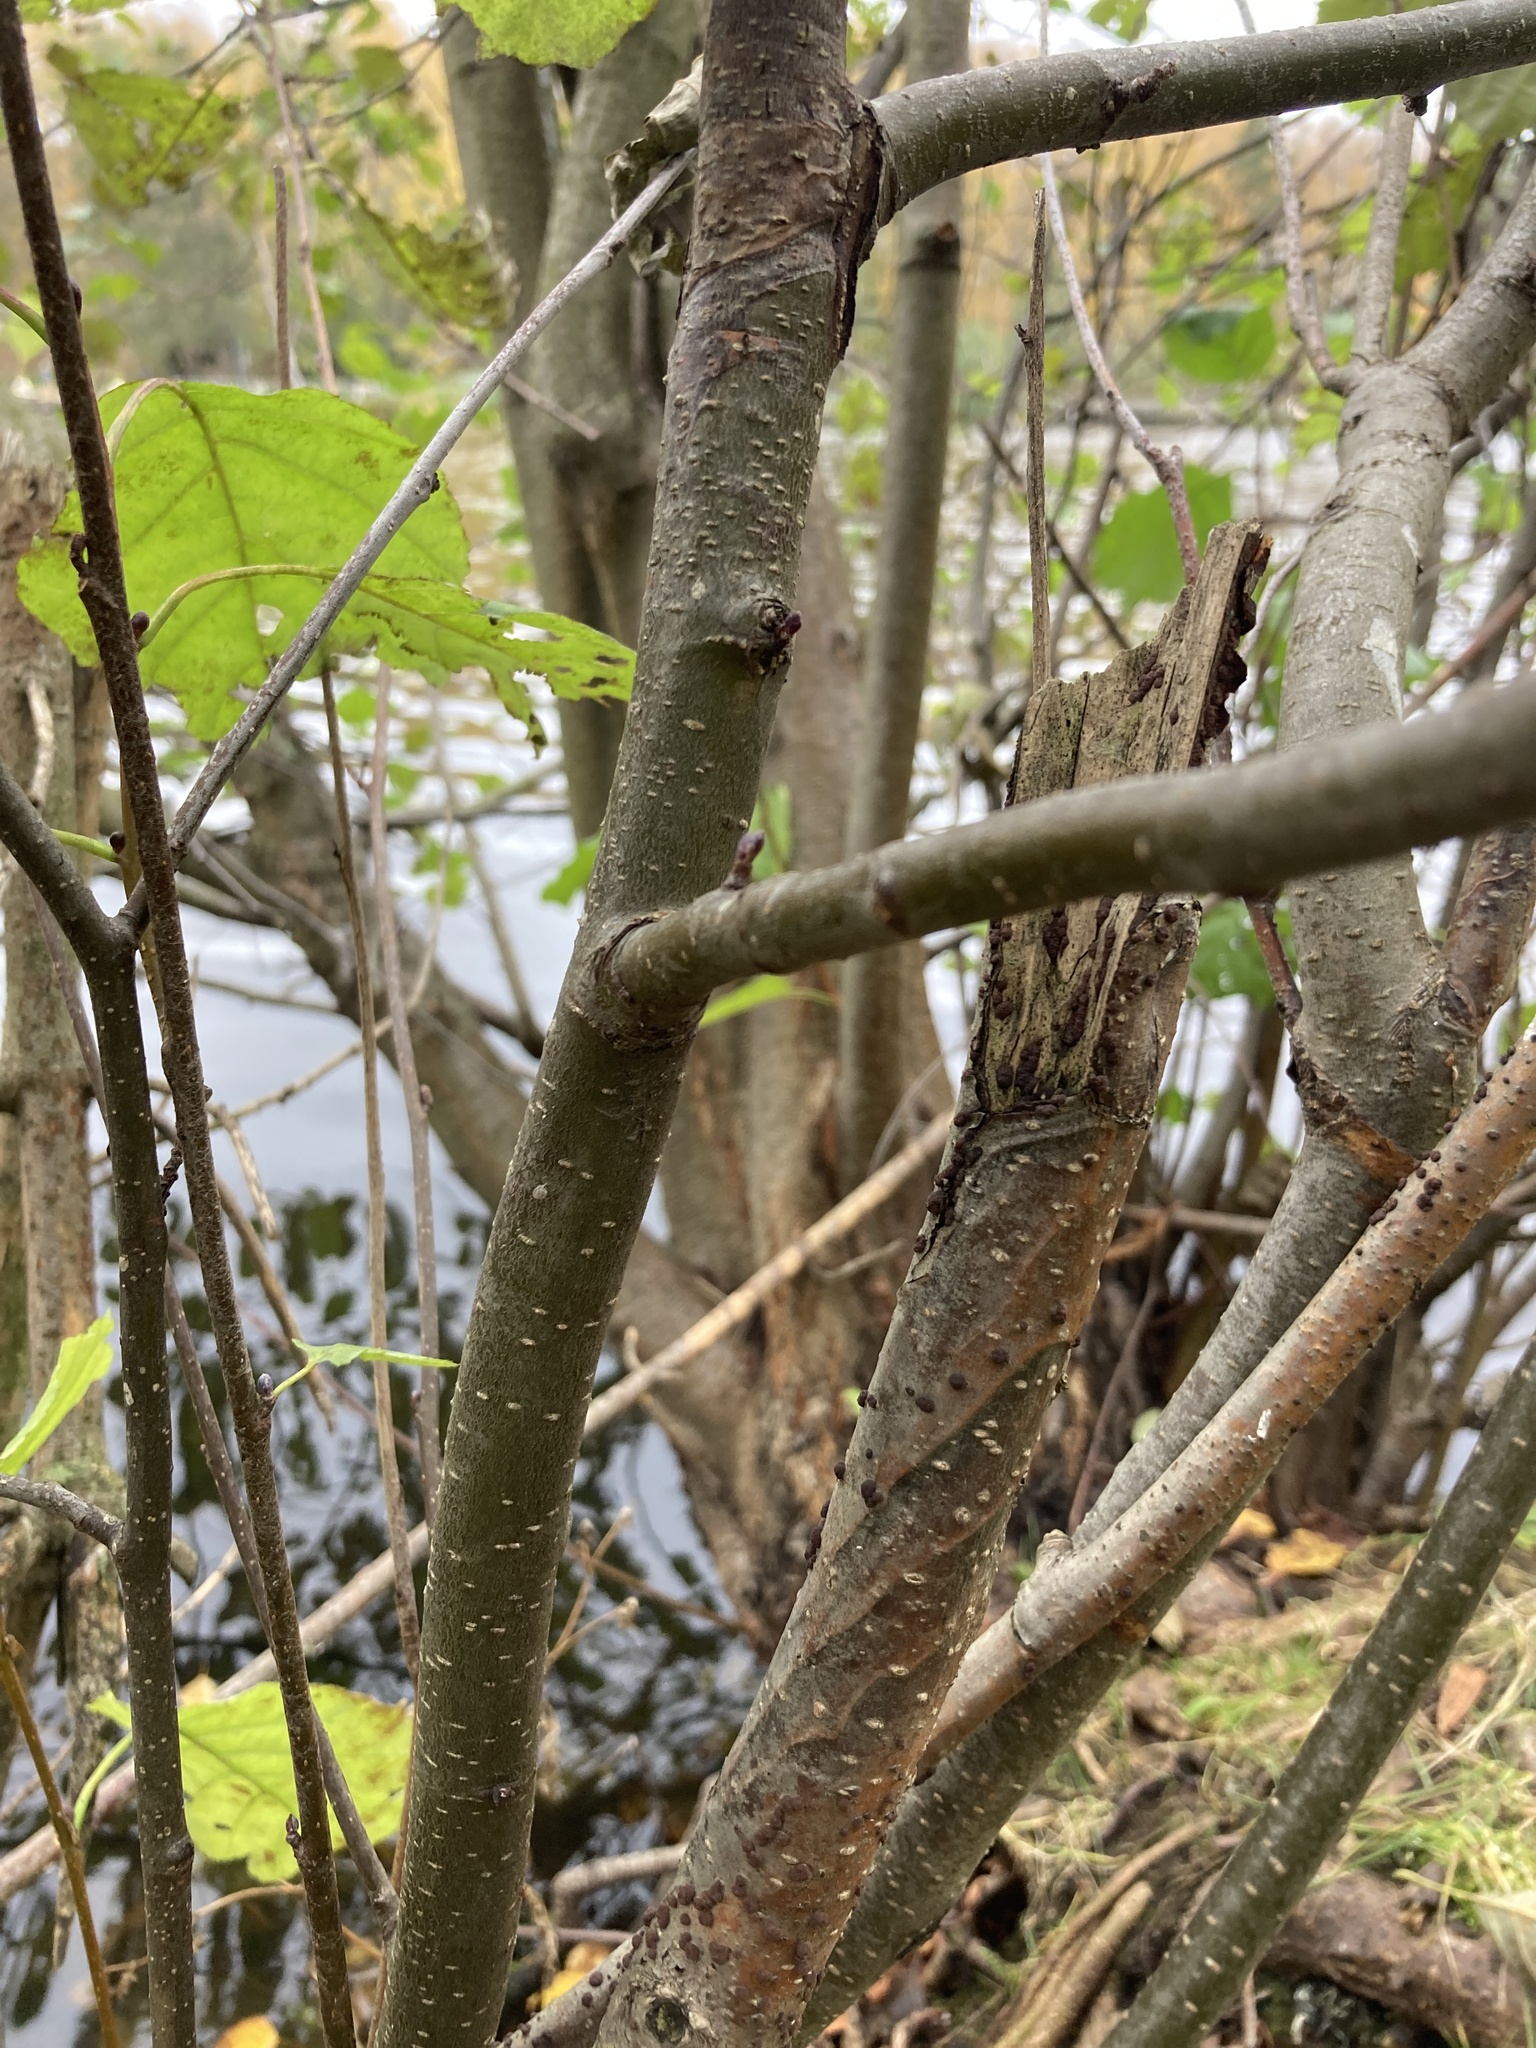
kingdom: Plantae
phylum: Tracheophyta
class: Magnoliopsida
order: Fagales
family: Betulaceae
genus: Alnus
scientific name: Alnus glutinosa
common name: Black alder
